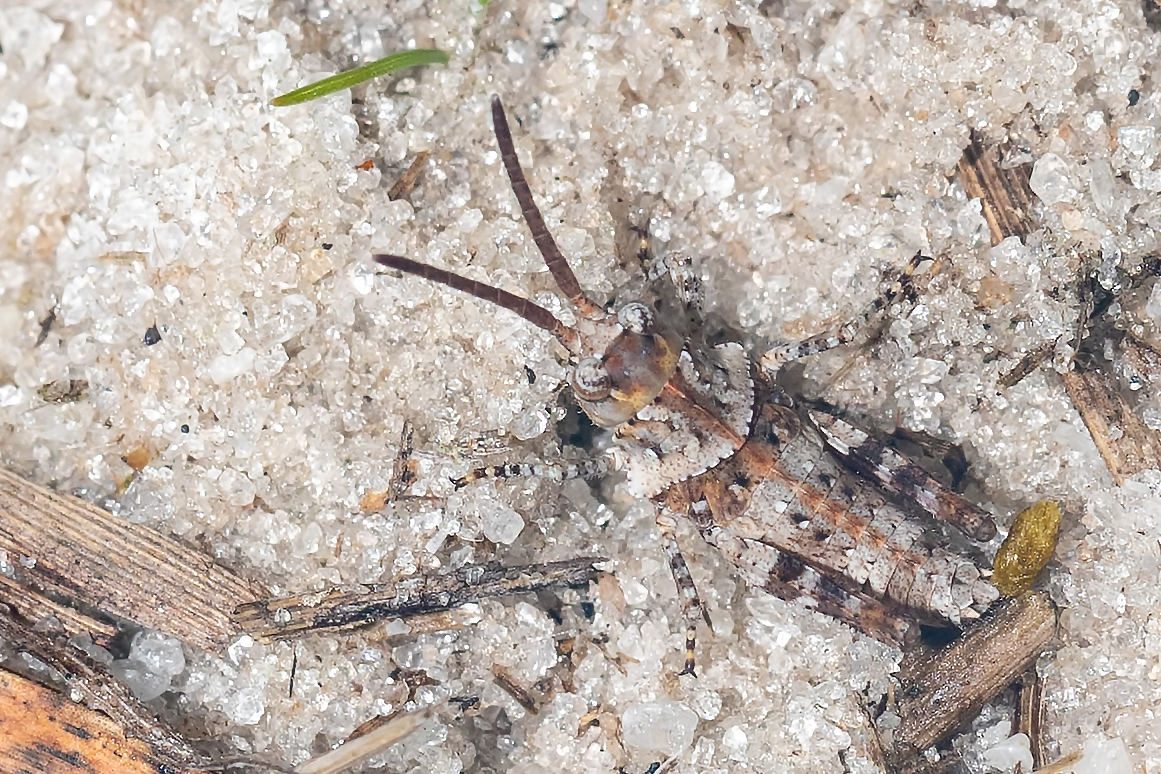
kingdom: Animalia
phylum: Arthropoda
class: Insecta
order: Orthoptera
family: Acrididae
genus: Psinidia
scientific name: Psinidia fenestralis
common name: Long-horned locust
